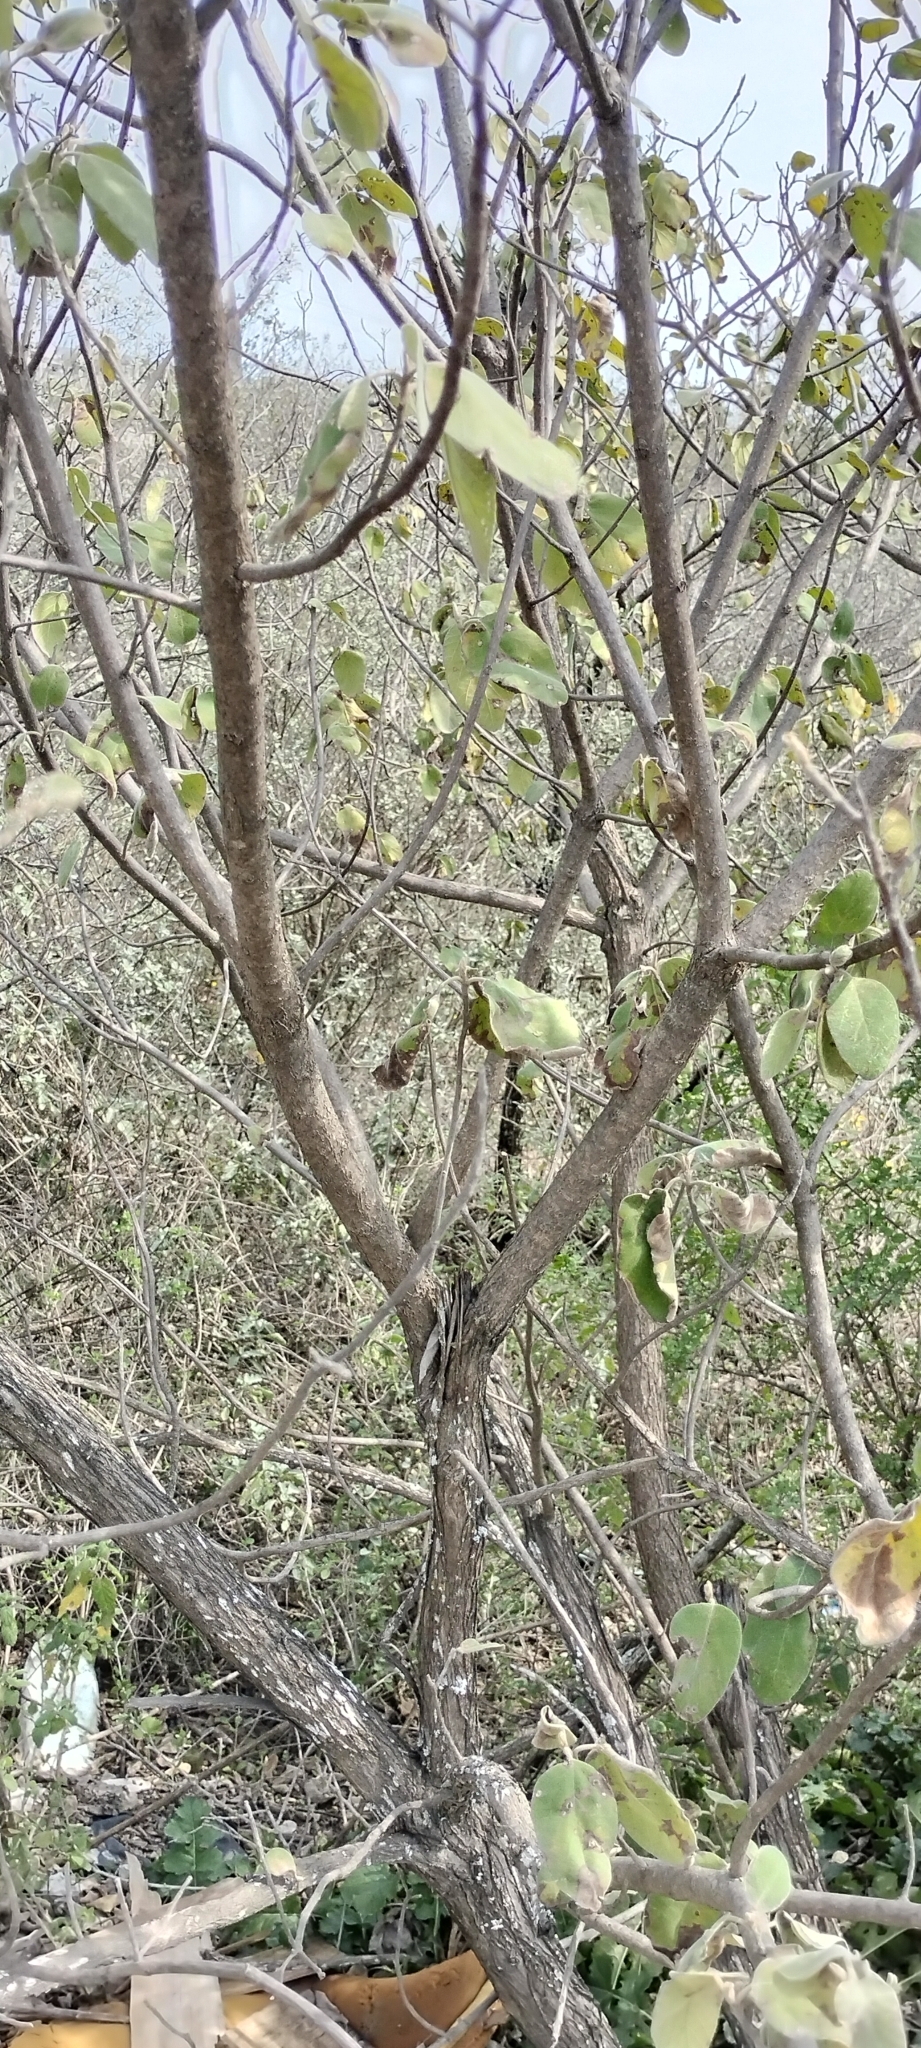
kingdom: Plantae
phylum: Tracheophyta
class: Magnoliopsida
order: Boraginales
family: Cordiaceae
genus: Cordia
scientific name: Cordia boissieri
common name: Mexican-olive
